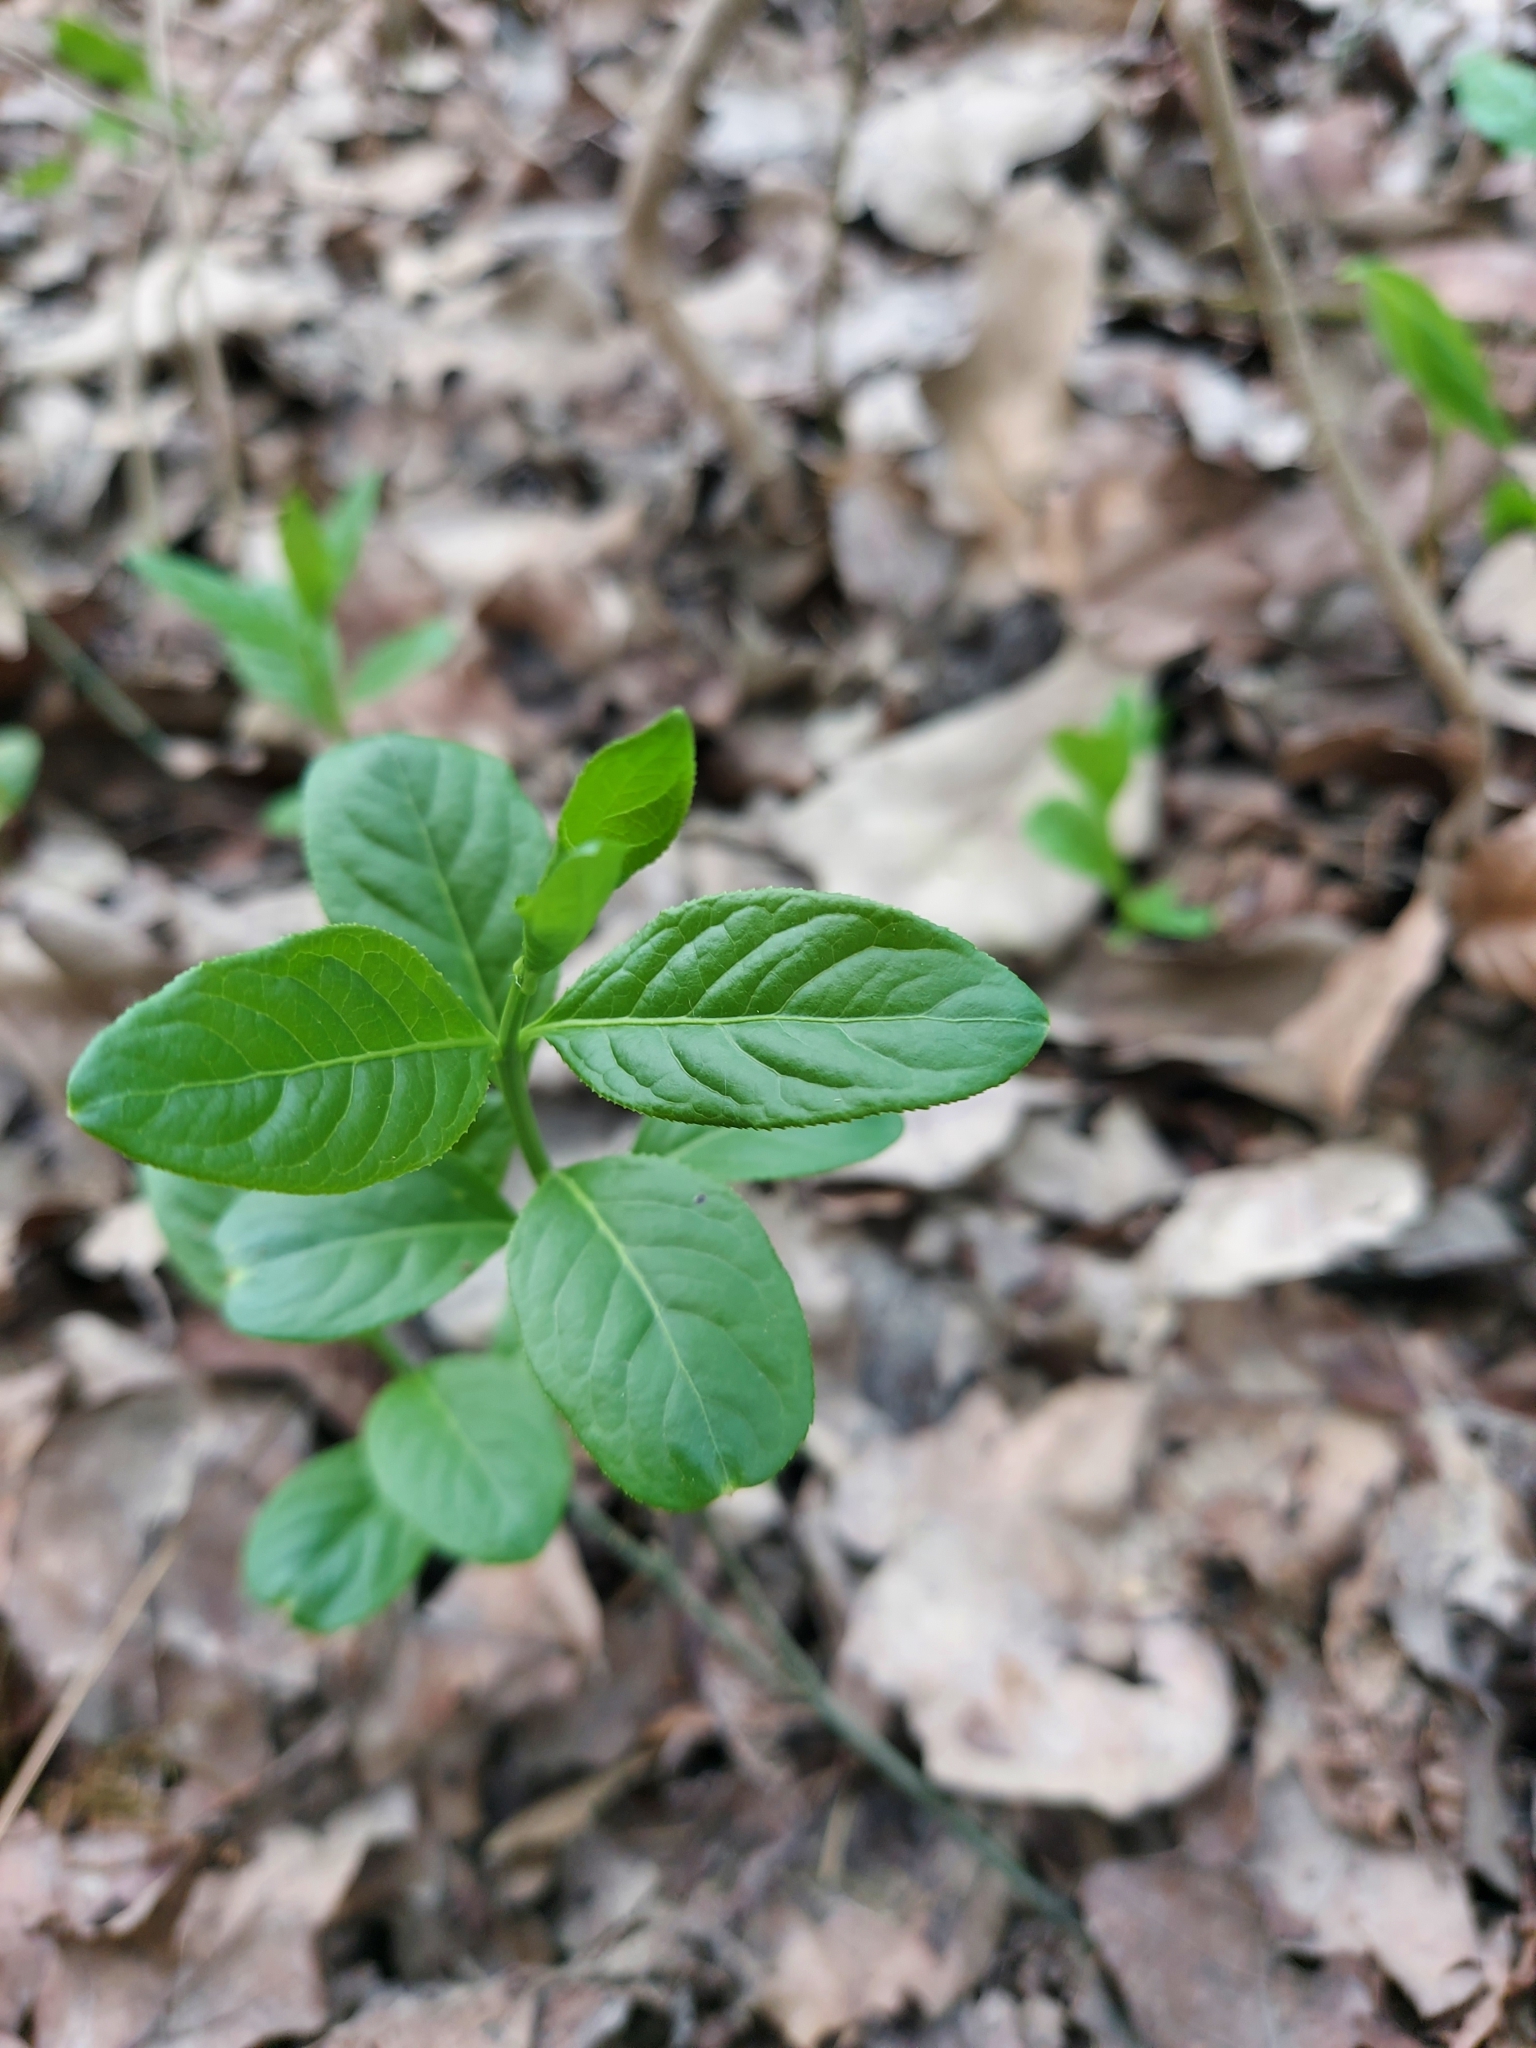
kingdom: Plantae
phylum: Tracheophyta
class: Magnoliopsida
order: Celastrales
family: Celastraceae
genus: Euonymus
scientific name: Euonymus europaeus
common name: Spindle
